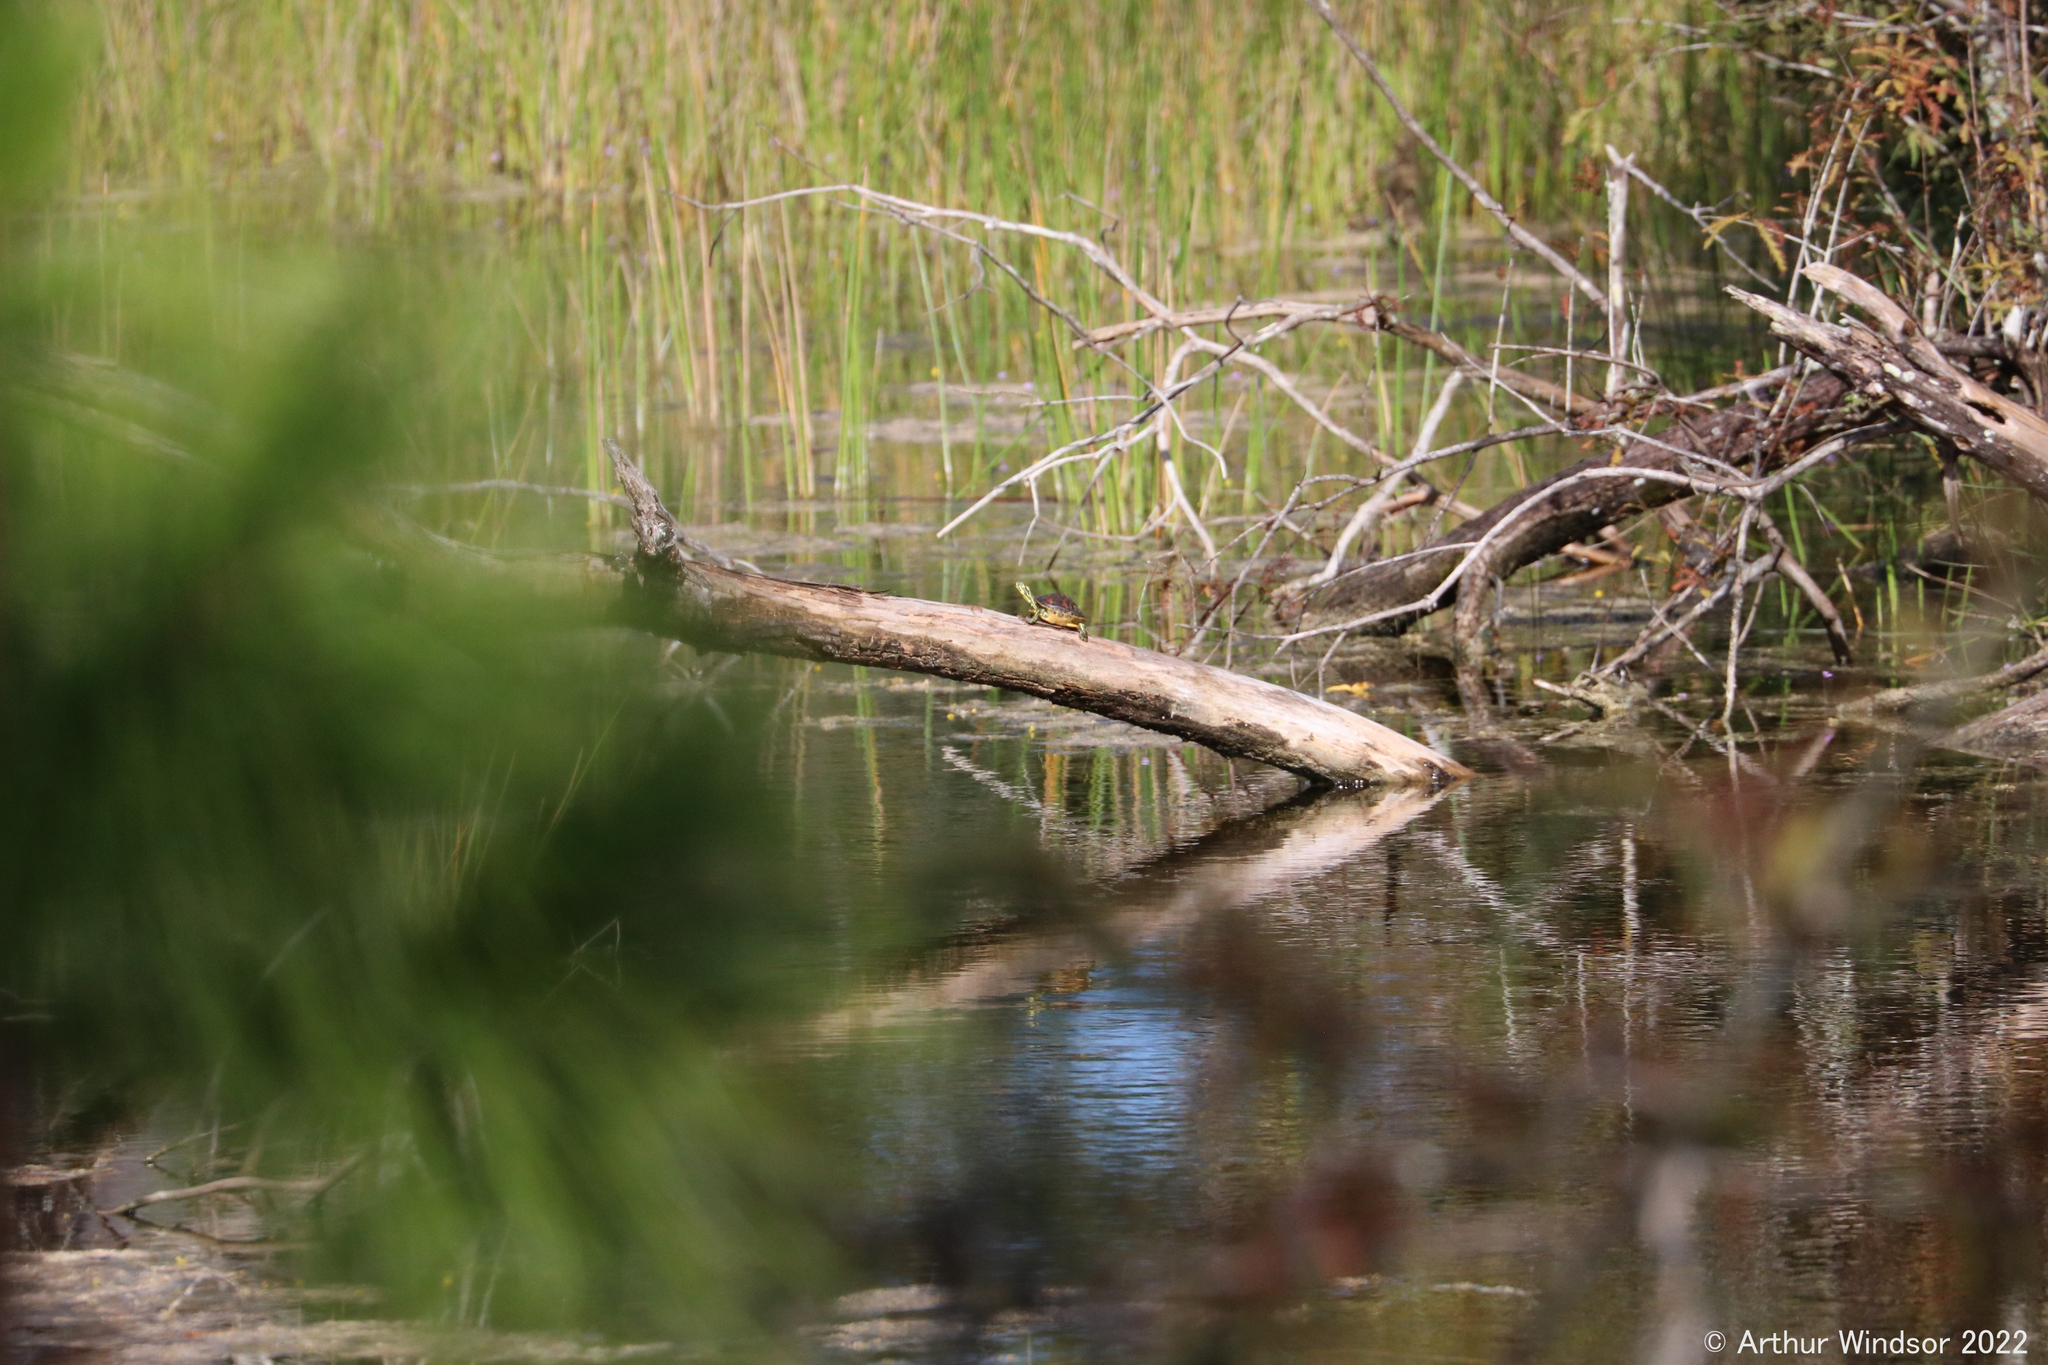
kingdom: Animalia
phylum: Chordata
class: Testudines
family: Emydidae
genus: Pseudemys
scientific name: Pseudemys nelsoni
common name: Florida red-bellied turtle
